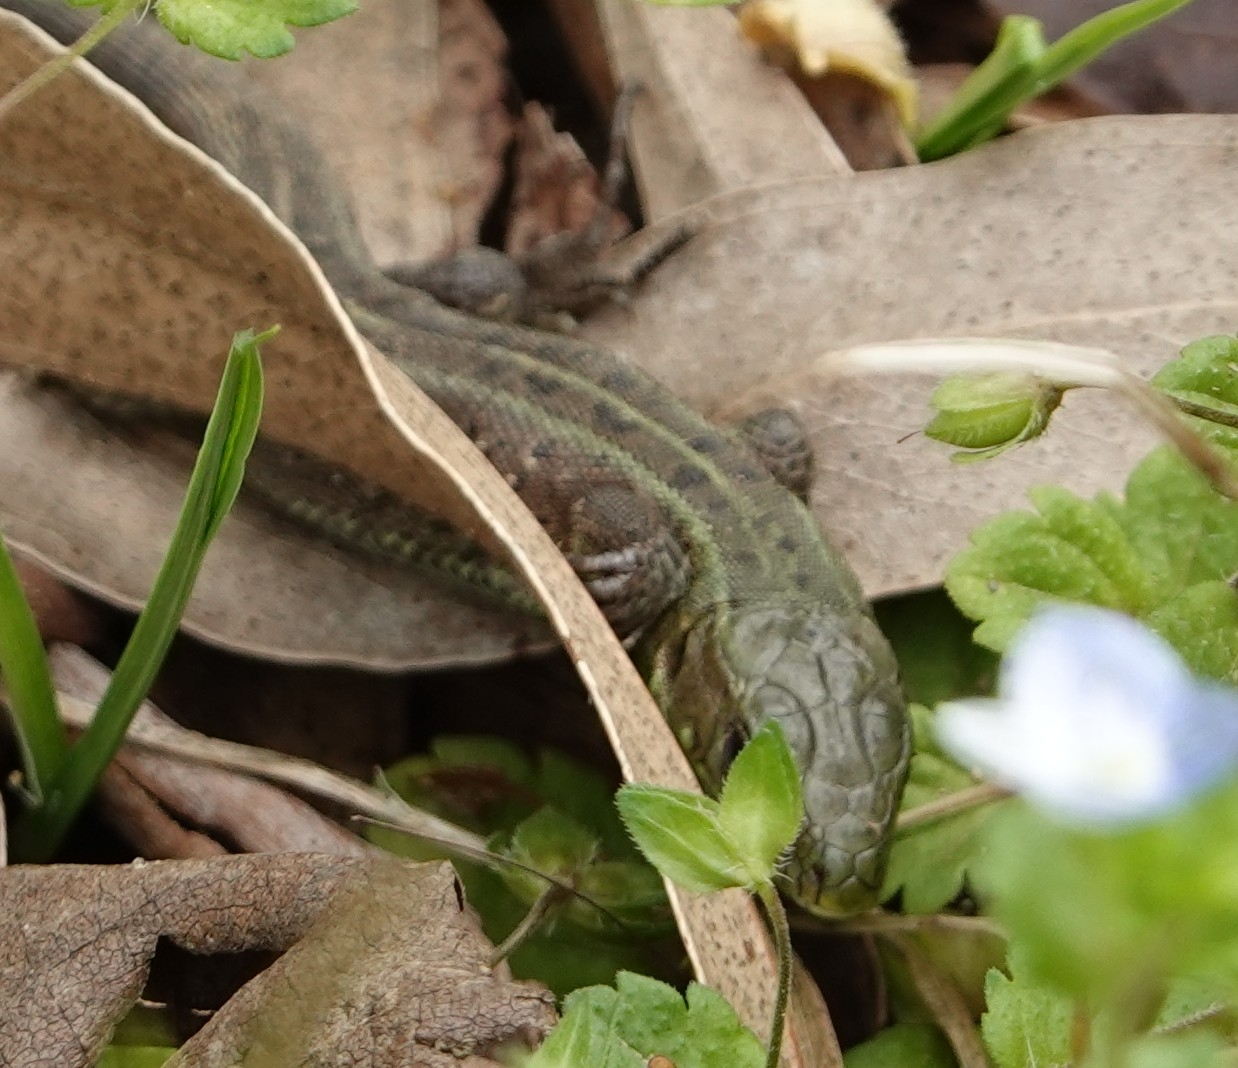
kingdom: Animalia
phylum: Chordata
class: Squamata
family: Lacertidae
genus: Lacerta
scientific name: Lacerta agilis
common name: Sand lizard
